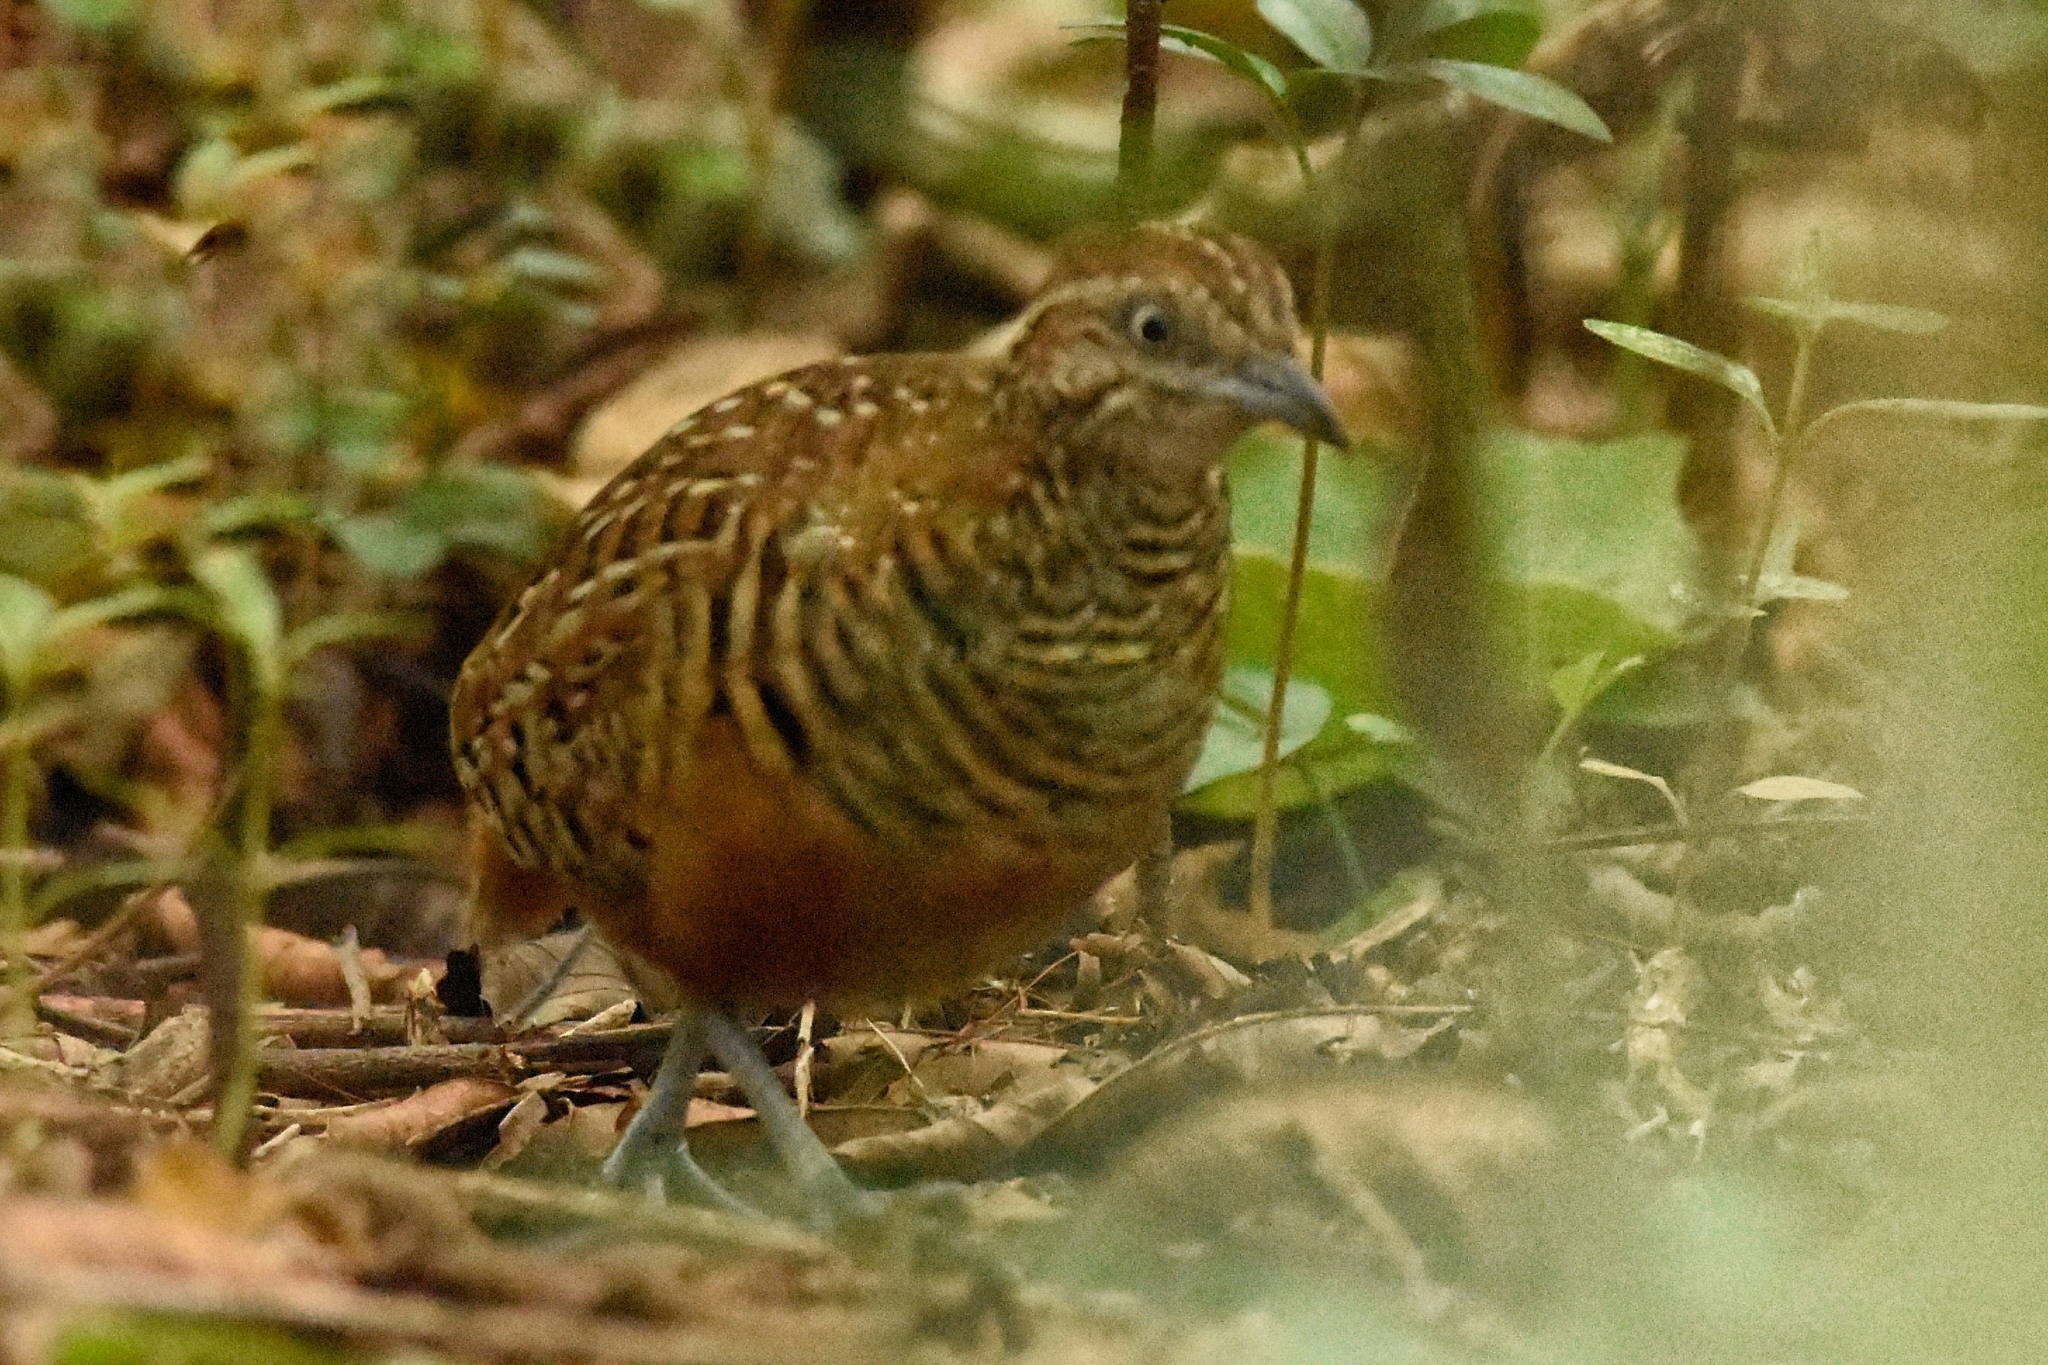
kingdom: Animalia
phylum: Chordata
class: Aves
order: Charadriiformes
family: Turnicidae
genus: Turnix
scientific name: Turnix suscitator
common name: Barred buttonquail
